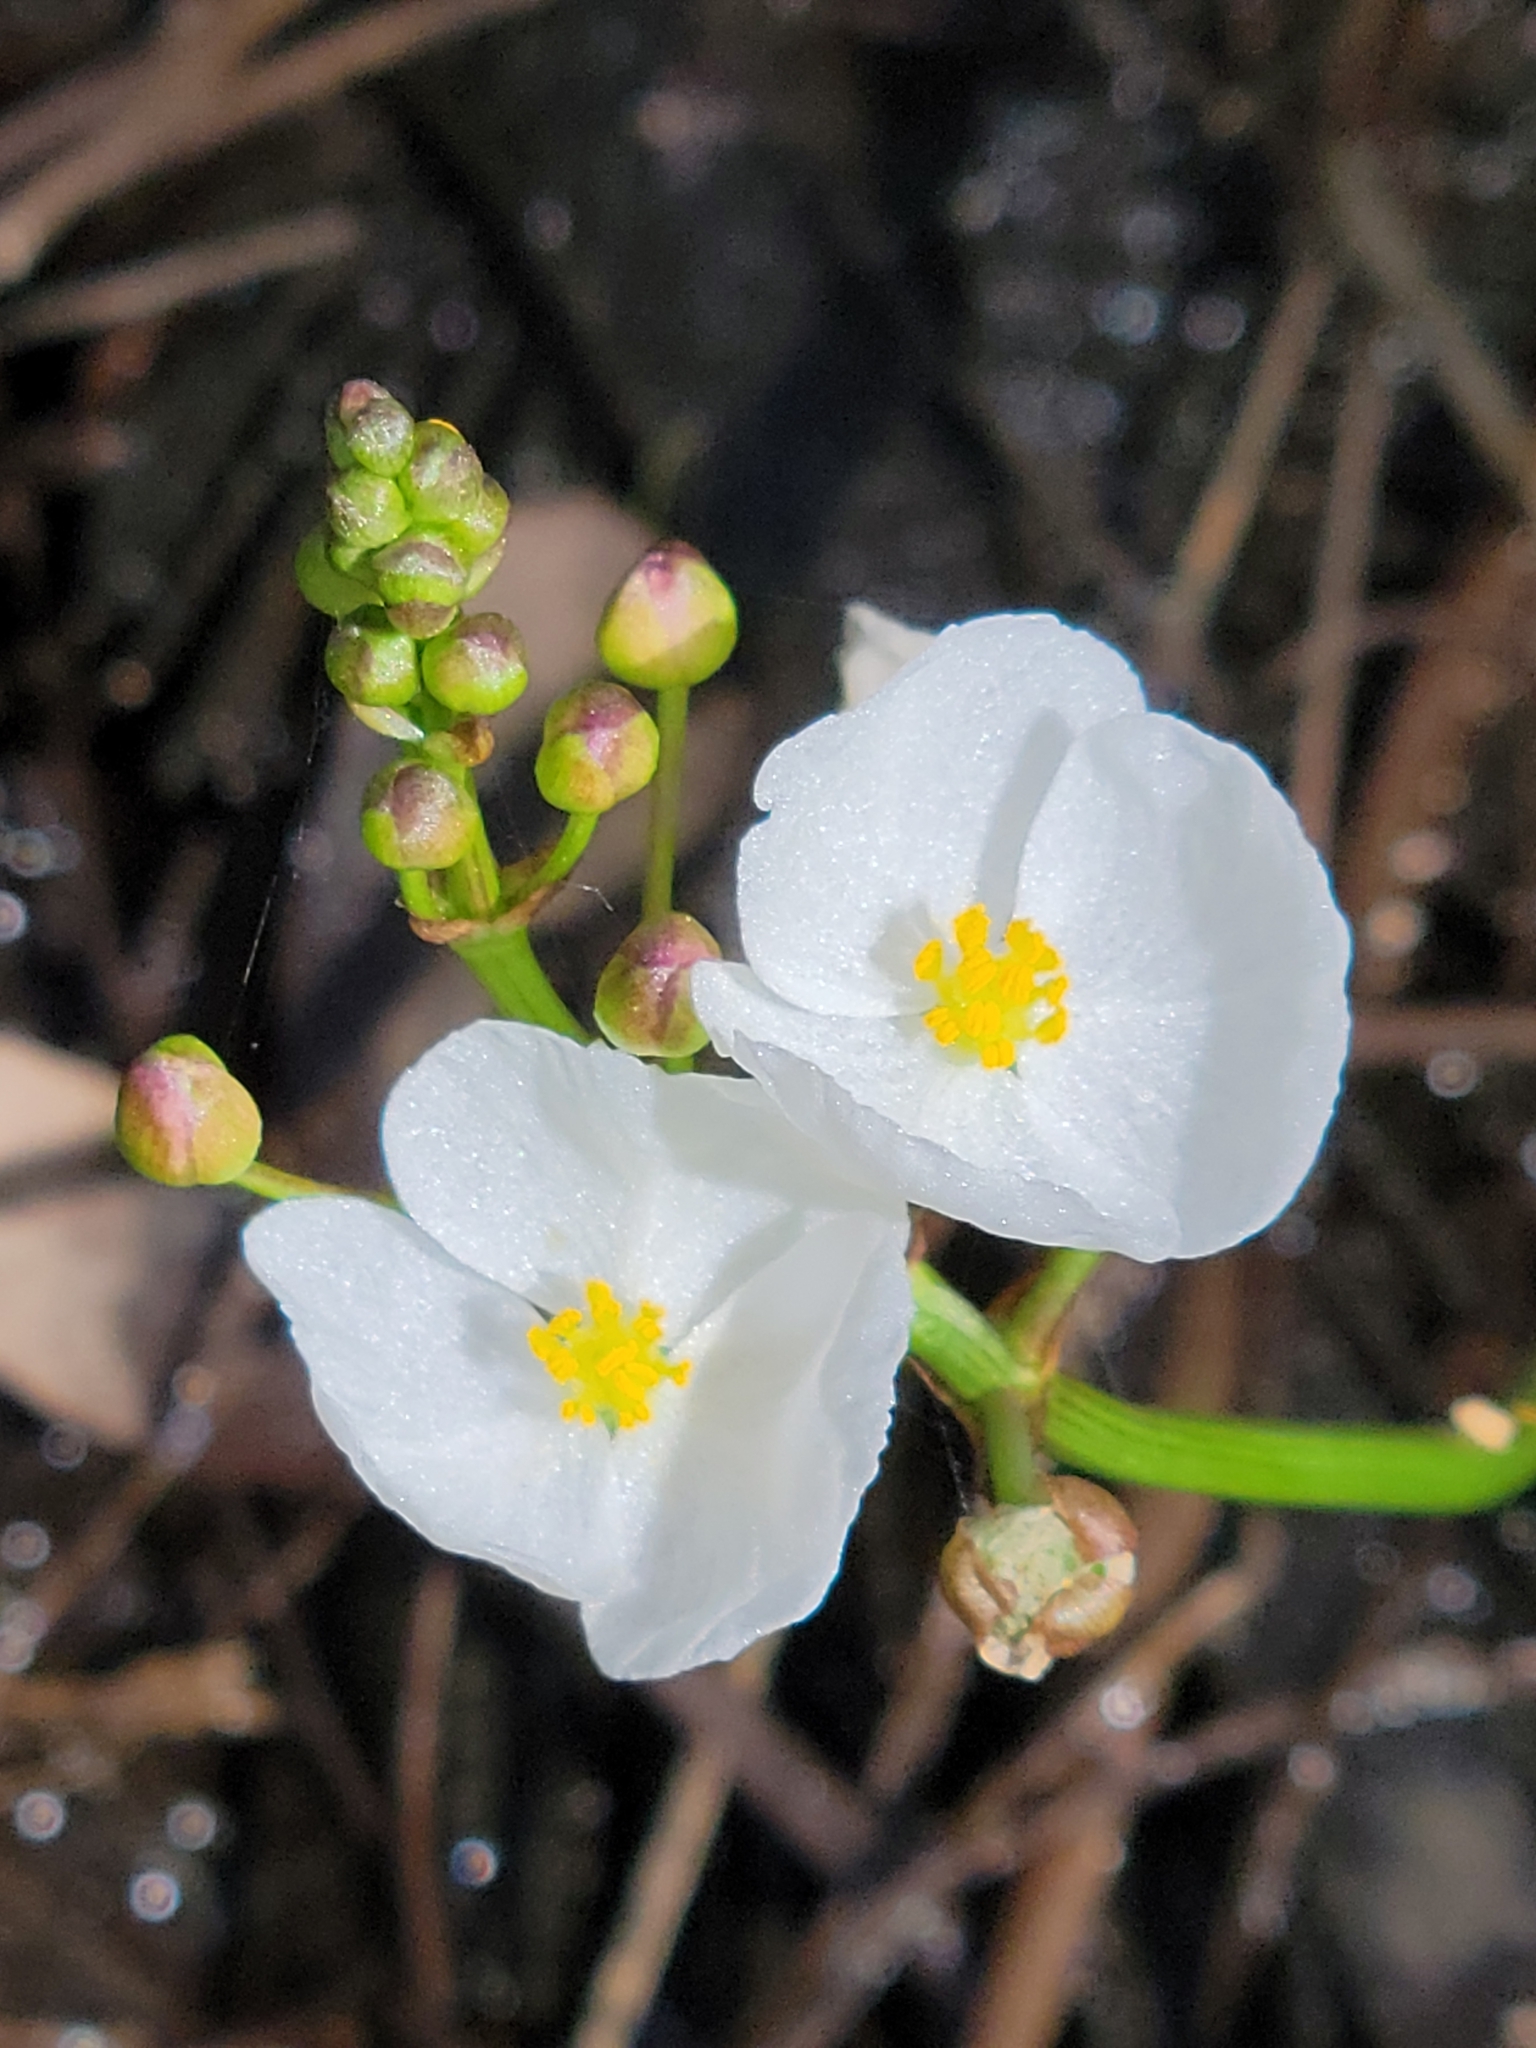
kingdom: Plantae
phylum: Tracheophyta
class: Liliopsida
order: Alismatales
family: Alismataceae
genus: Sagittaria
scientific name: Sagittaria graminea
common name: Grass-leaved arrowhead
